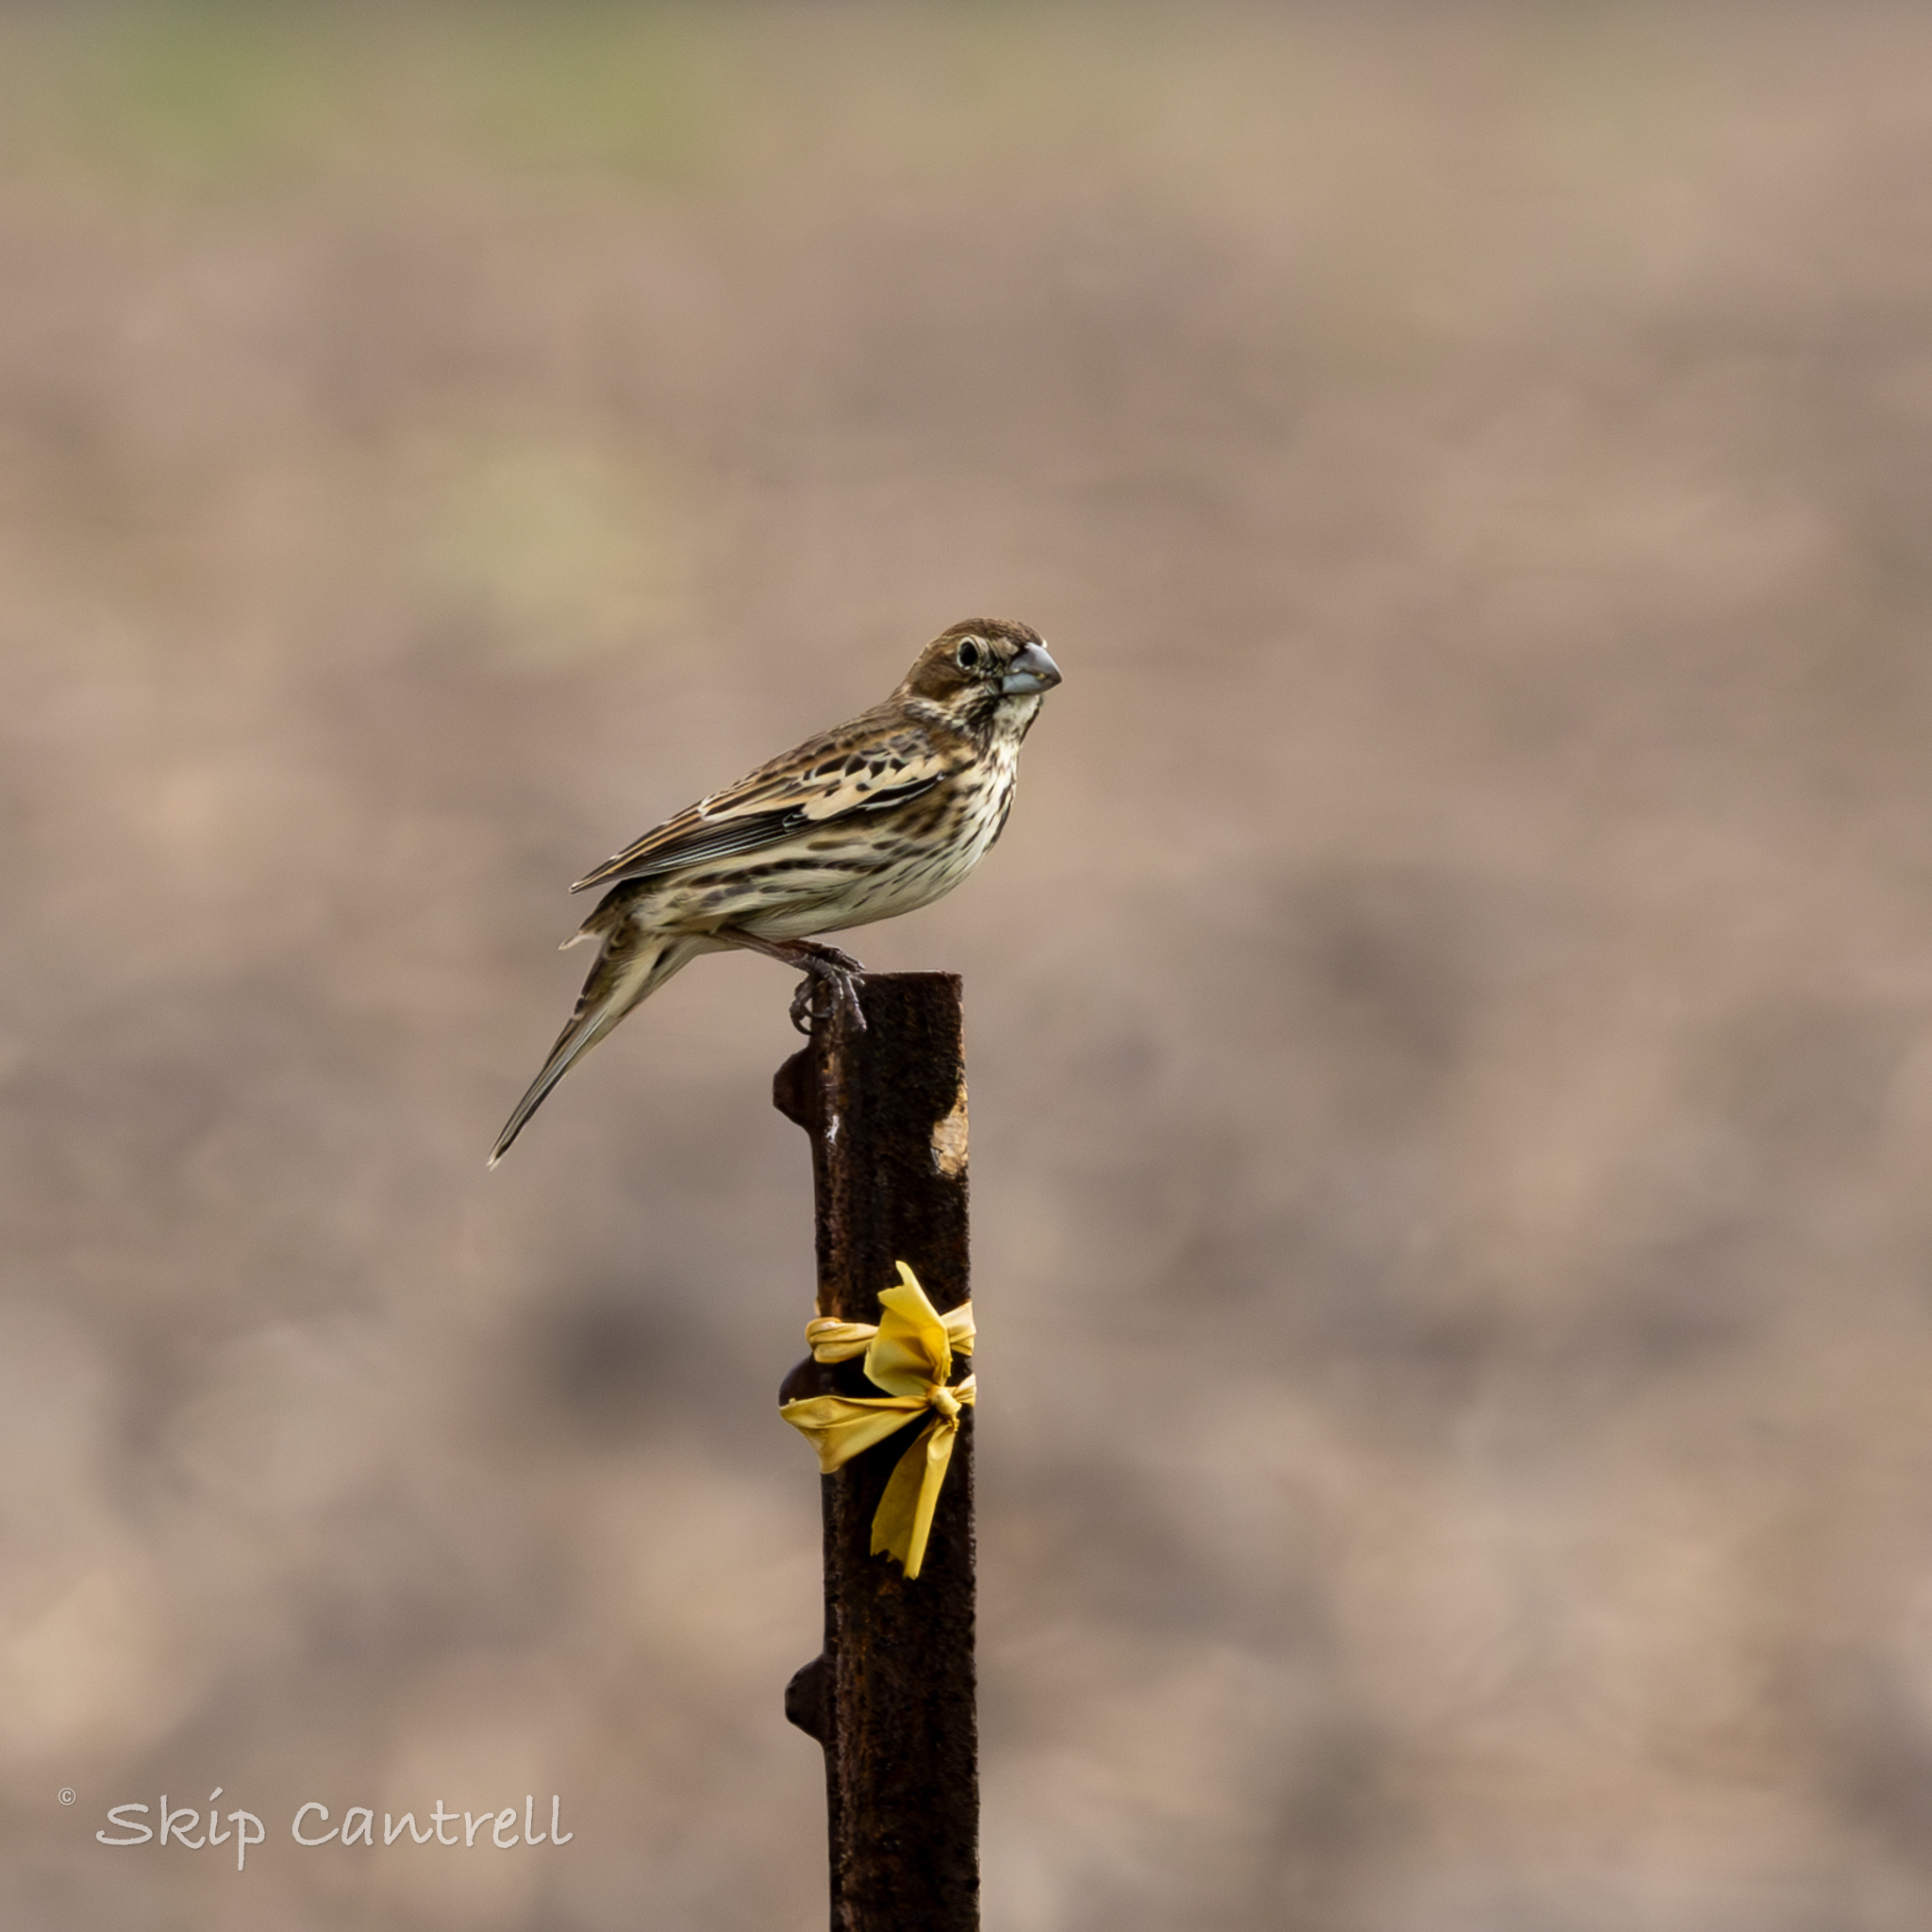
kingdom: Animalia
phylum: Chordata
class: Aves
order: Passeriformes
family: Passerellidae
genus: Calamospiza
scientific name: Calamospiza melanocorys
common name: Lark bunting
